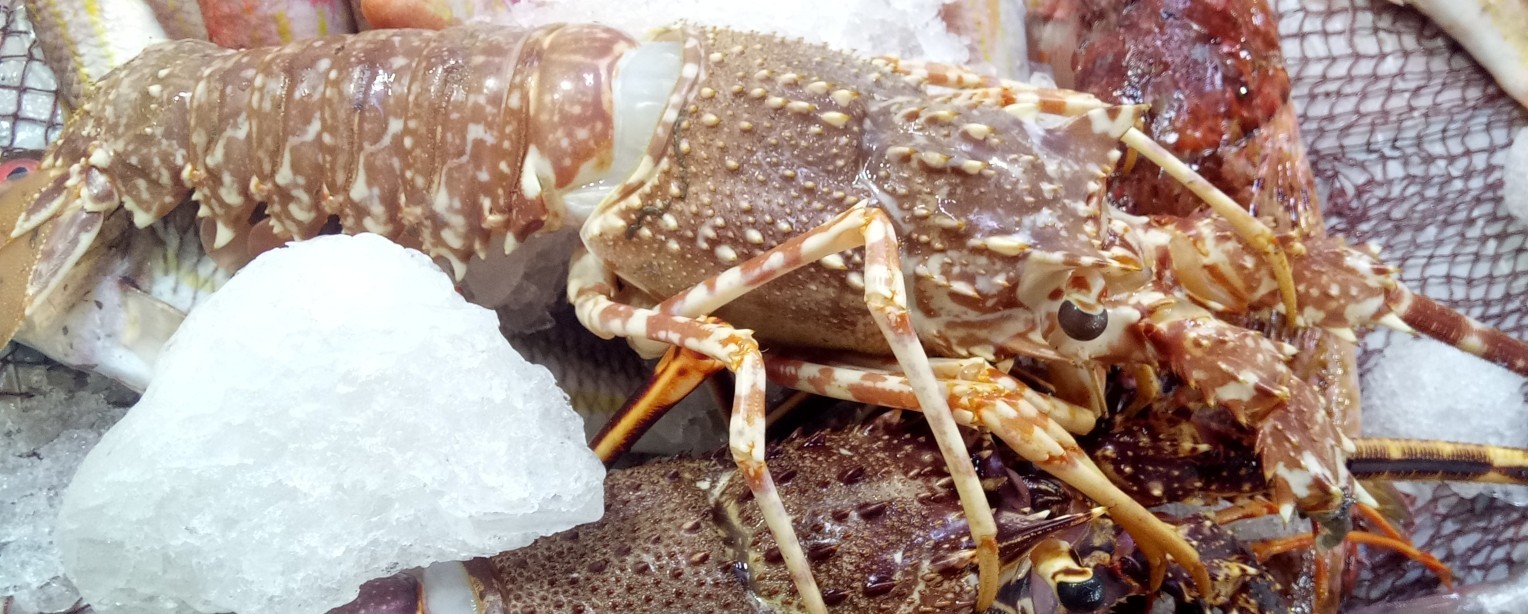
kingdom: Animalia
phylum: Arthropoda
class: Malacostraca
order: Decapoda
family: Palinuridae
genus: Palinurus
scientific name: Palinurus mauritanicus
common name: Pink spiny lobster
